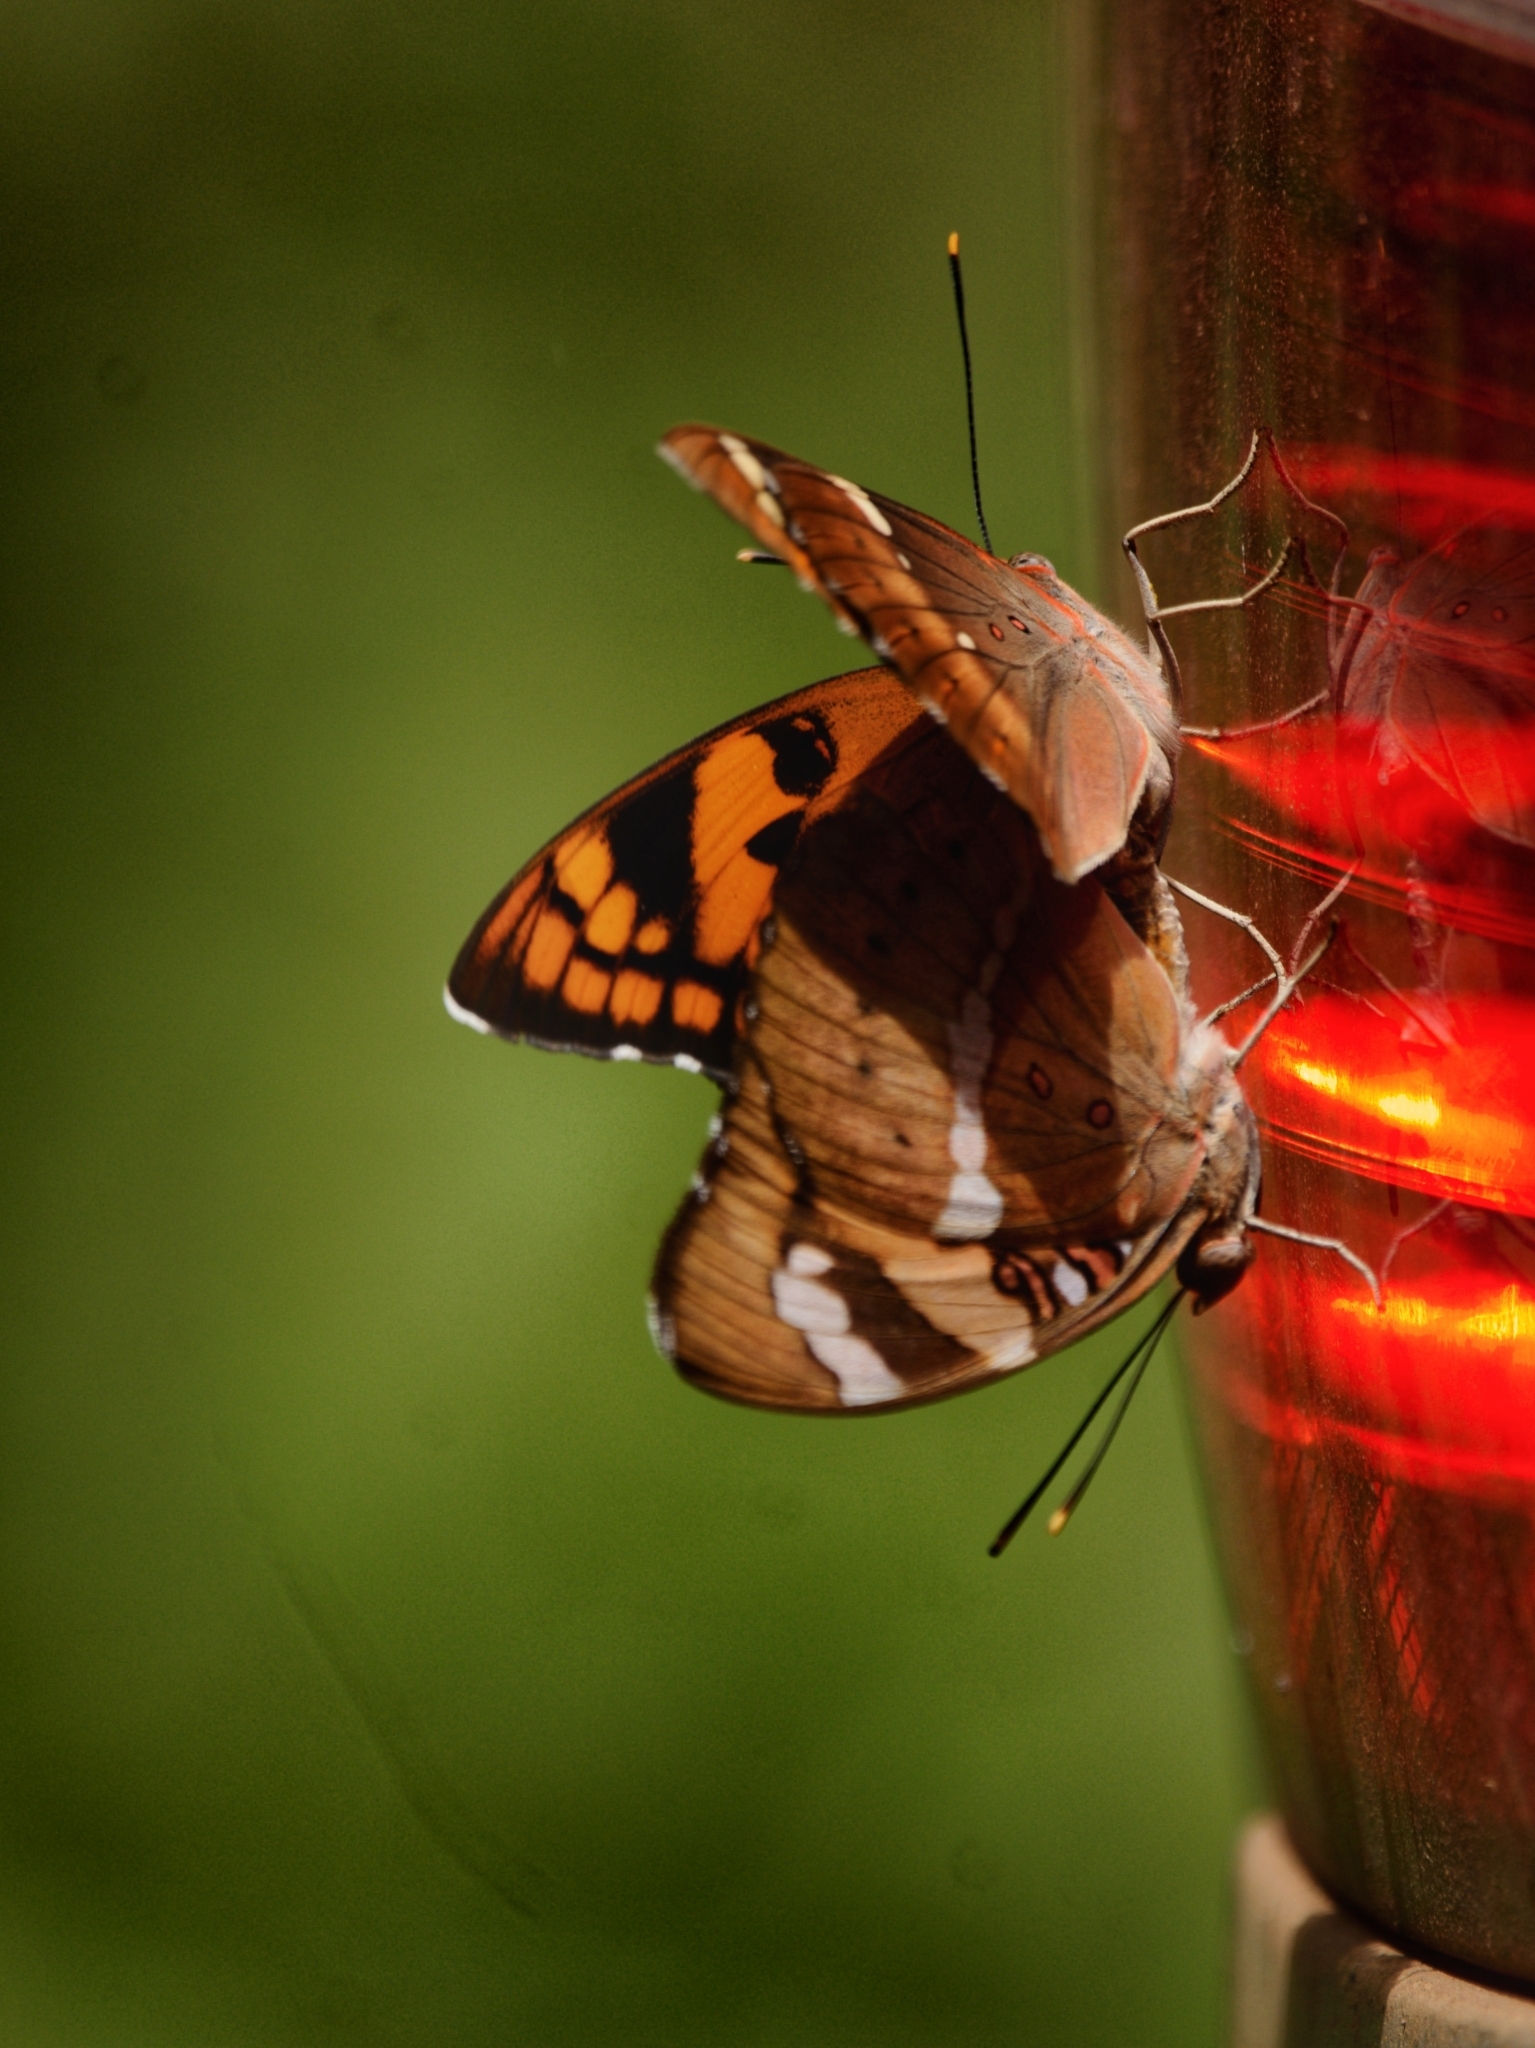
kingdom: Animalia
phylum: Arthropoda
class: Insecta
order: Lepidoptera
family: Nymphalidae
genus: Euthalia
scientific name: Euthalia nais
